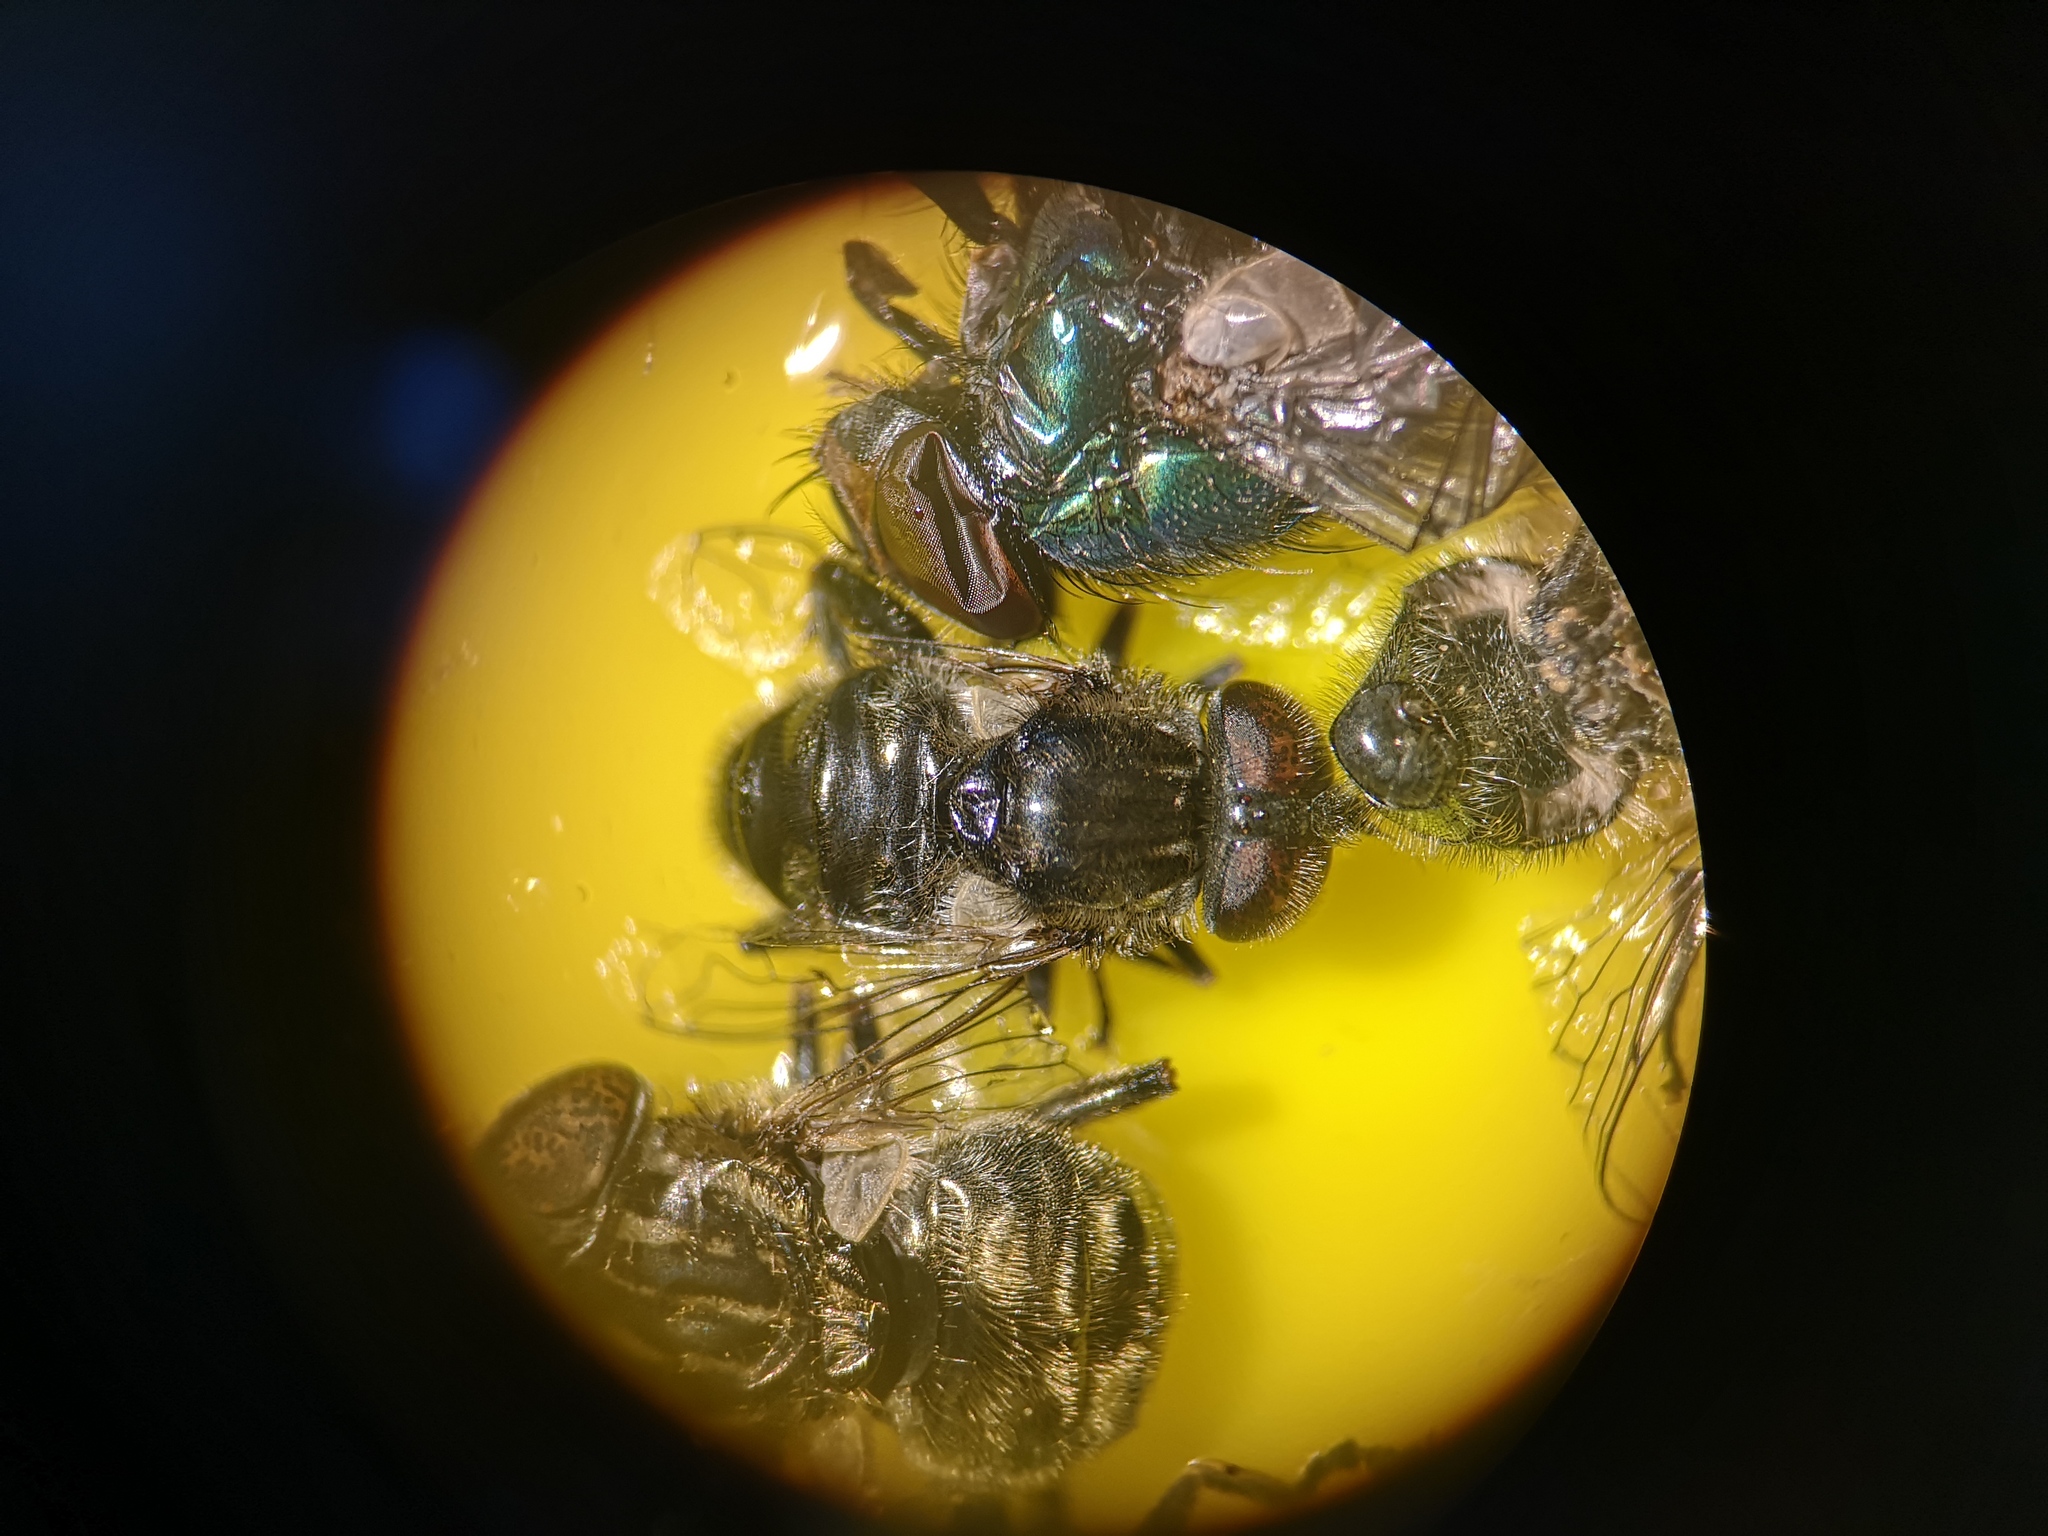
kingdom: Animalia
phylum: Arthropoda
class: Insecta
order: Diptera
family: Syrphidae
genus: Eristalinus
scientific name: Eristalinus sepulchralis
